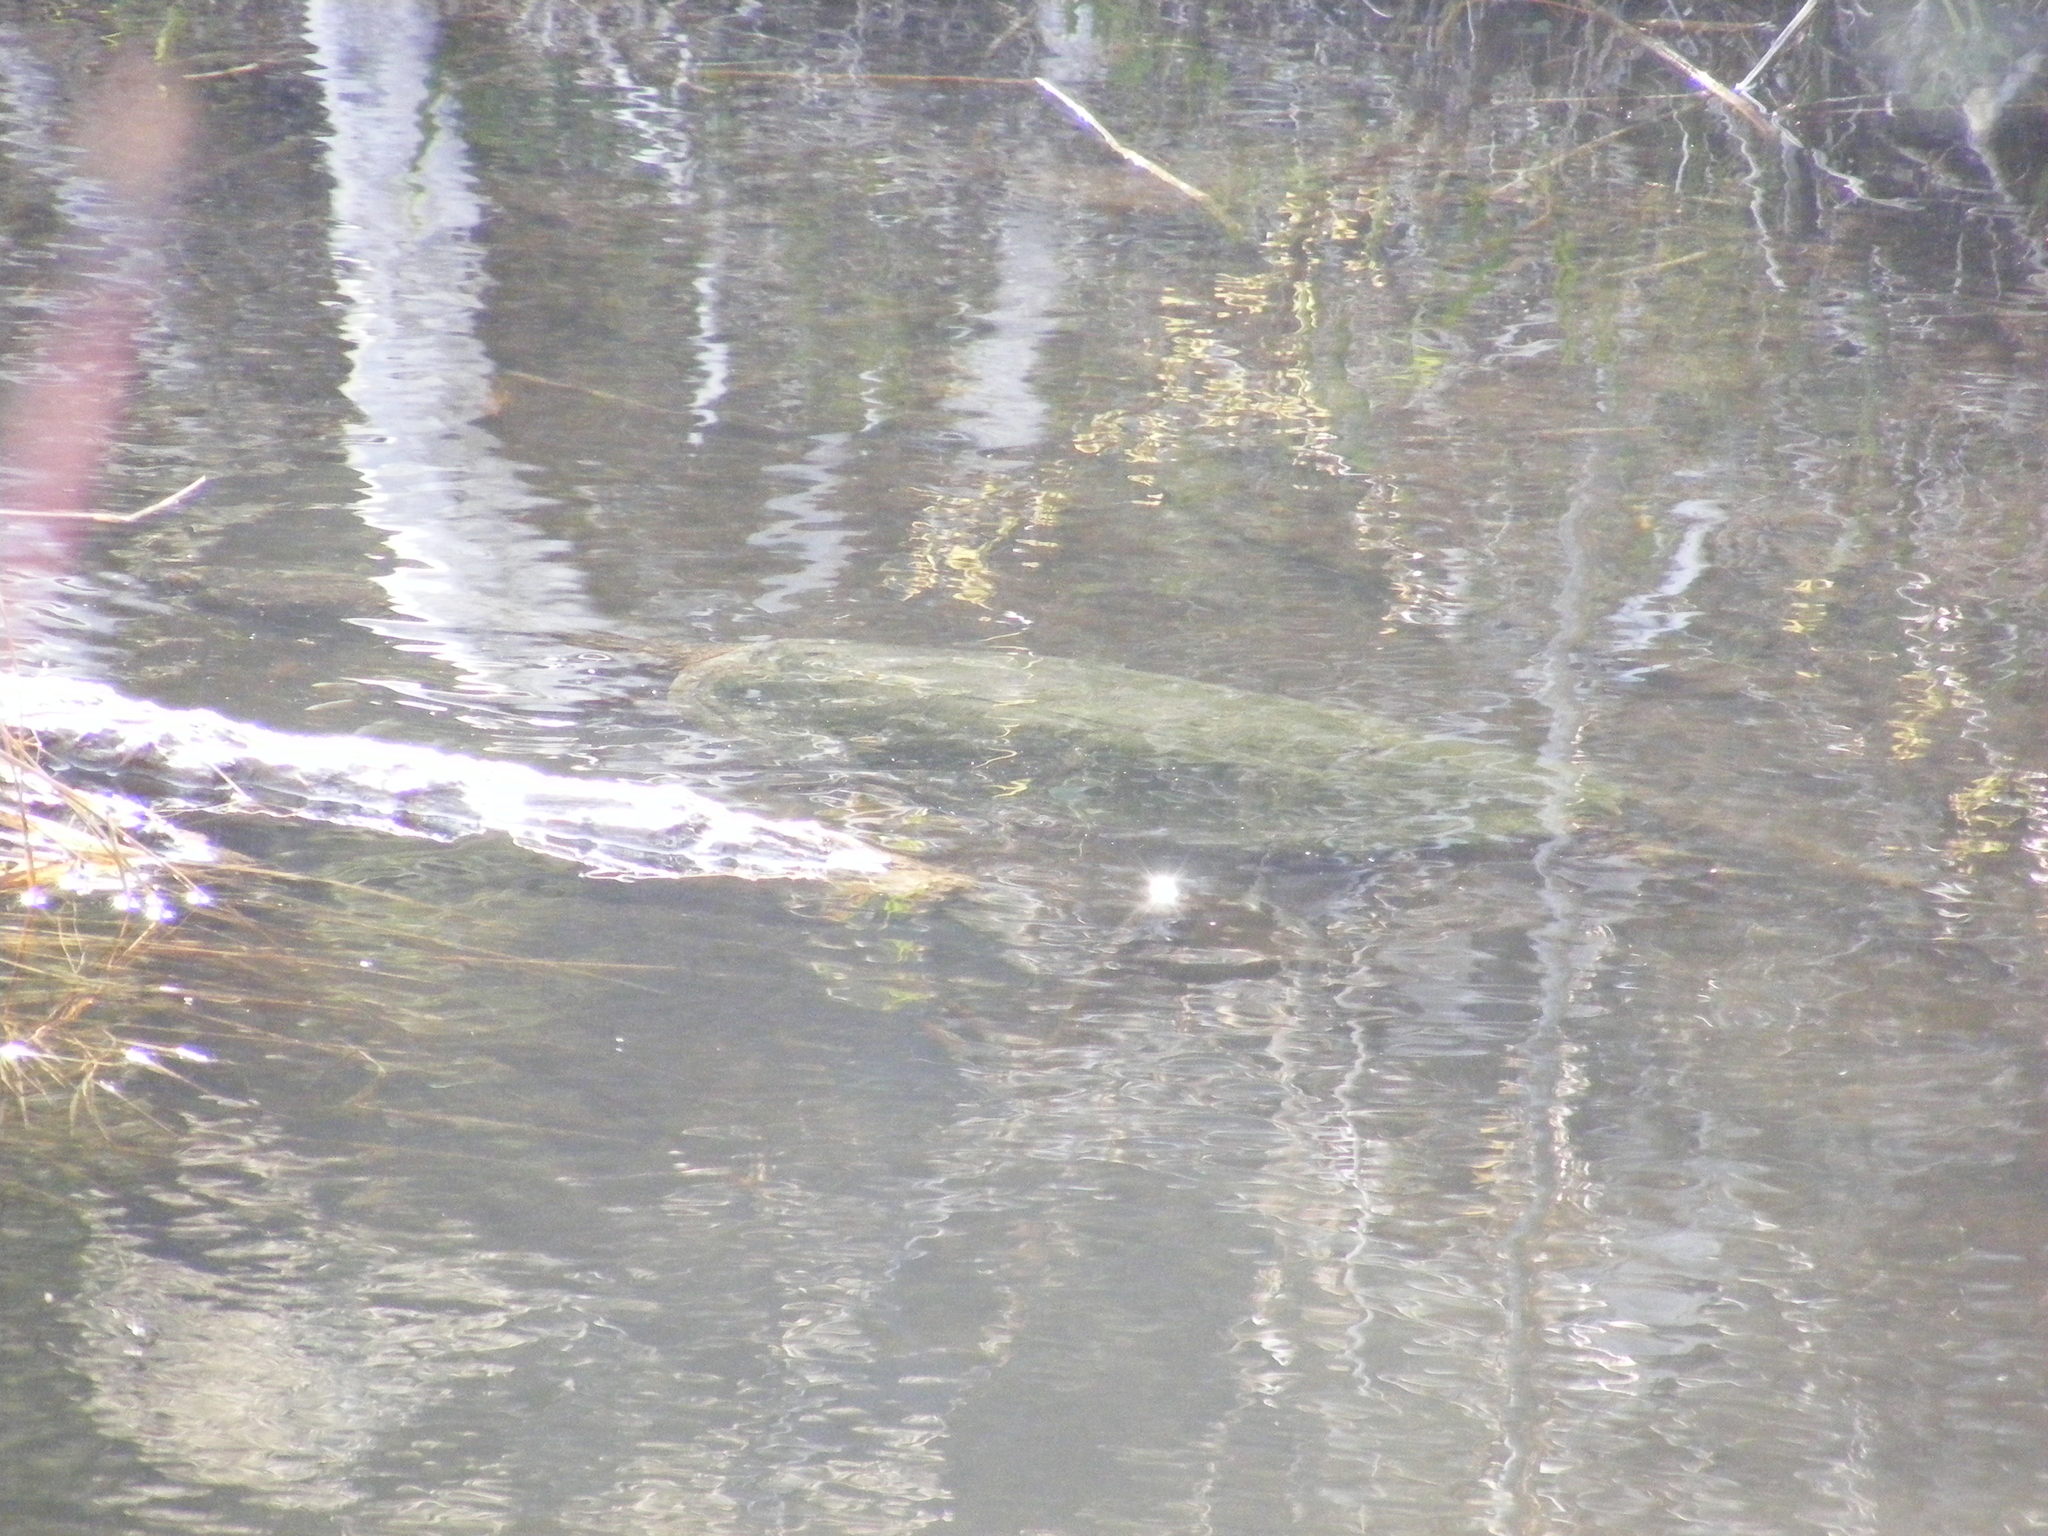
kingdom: Animalia
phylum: Chordata
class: Testudines
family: Chelydridae
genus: Chelydra
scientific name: Chelydra serpentina
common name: Common snapping turtle
